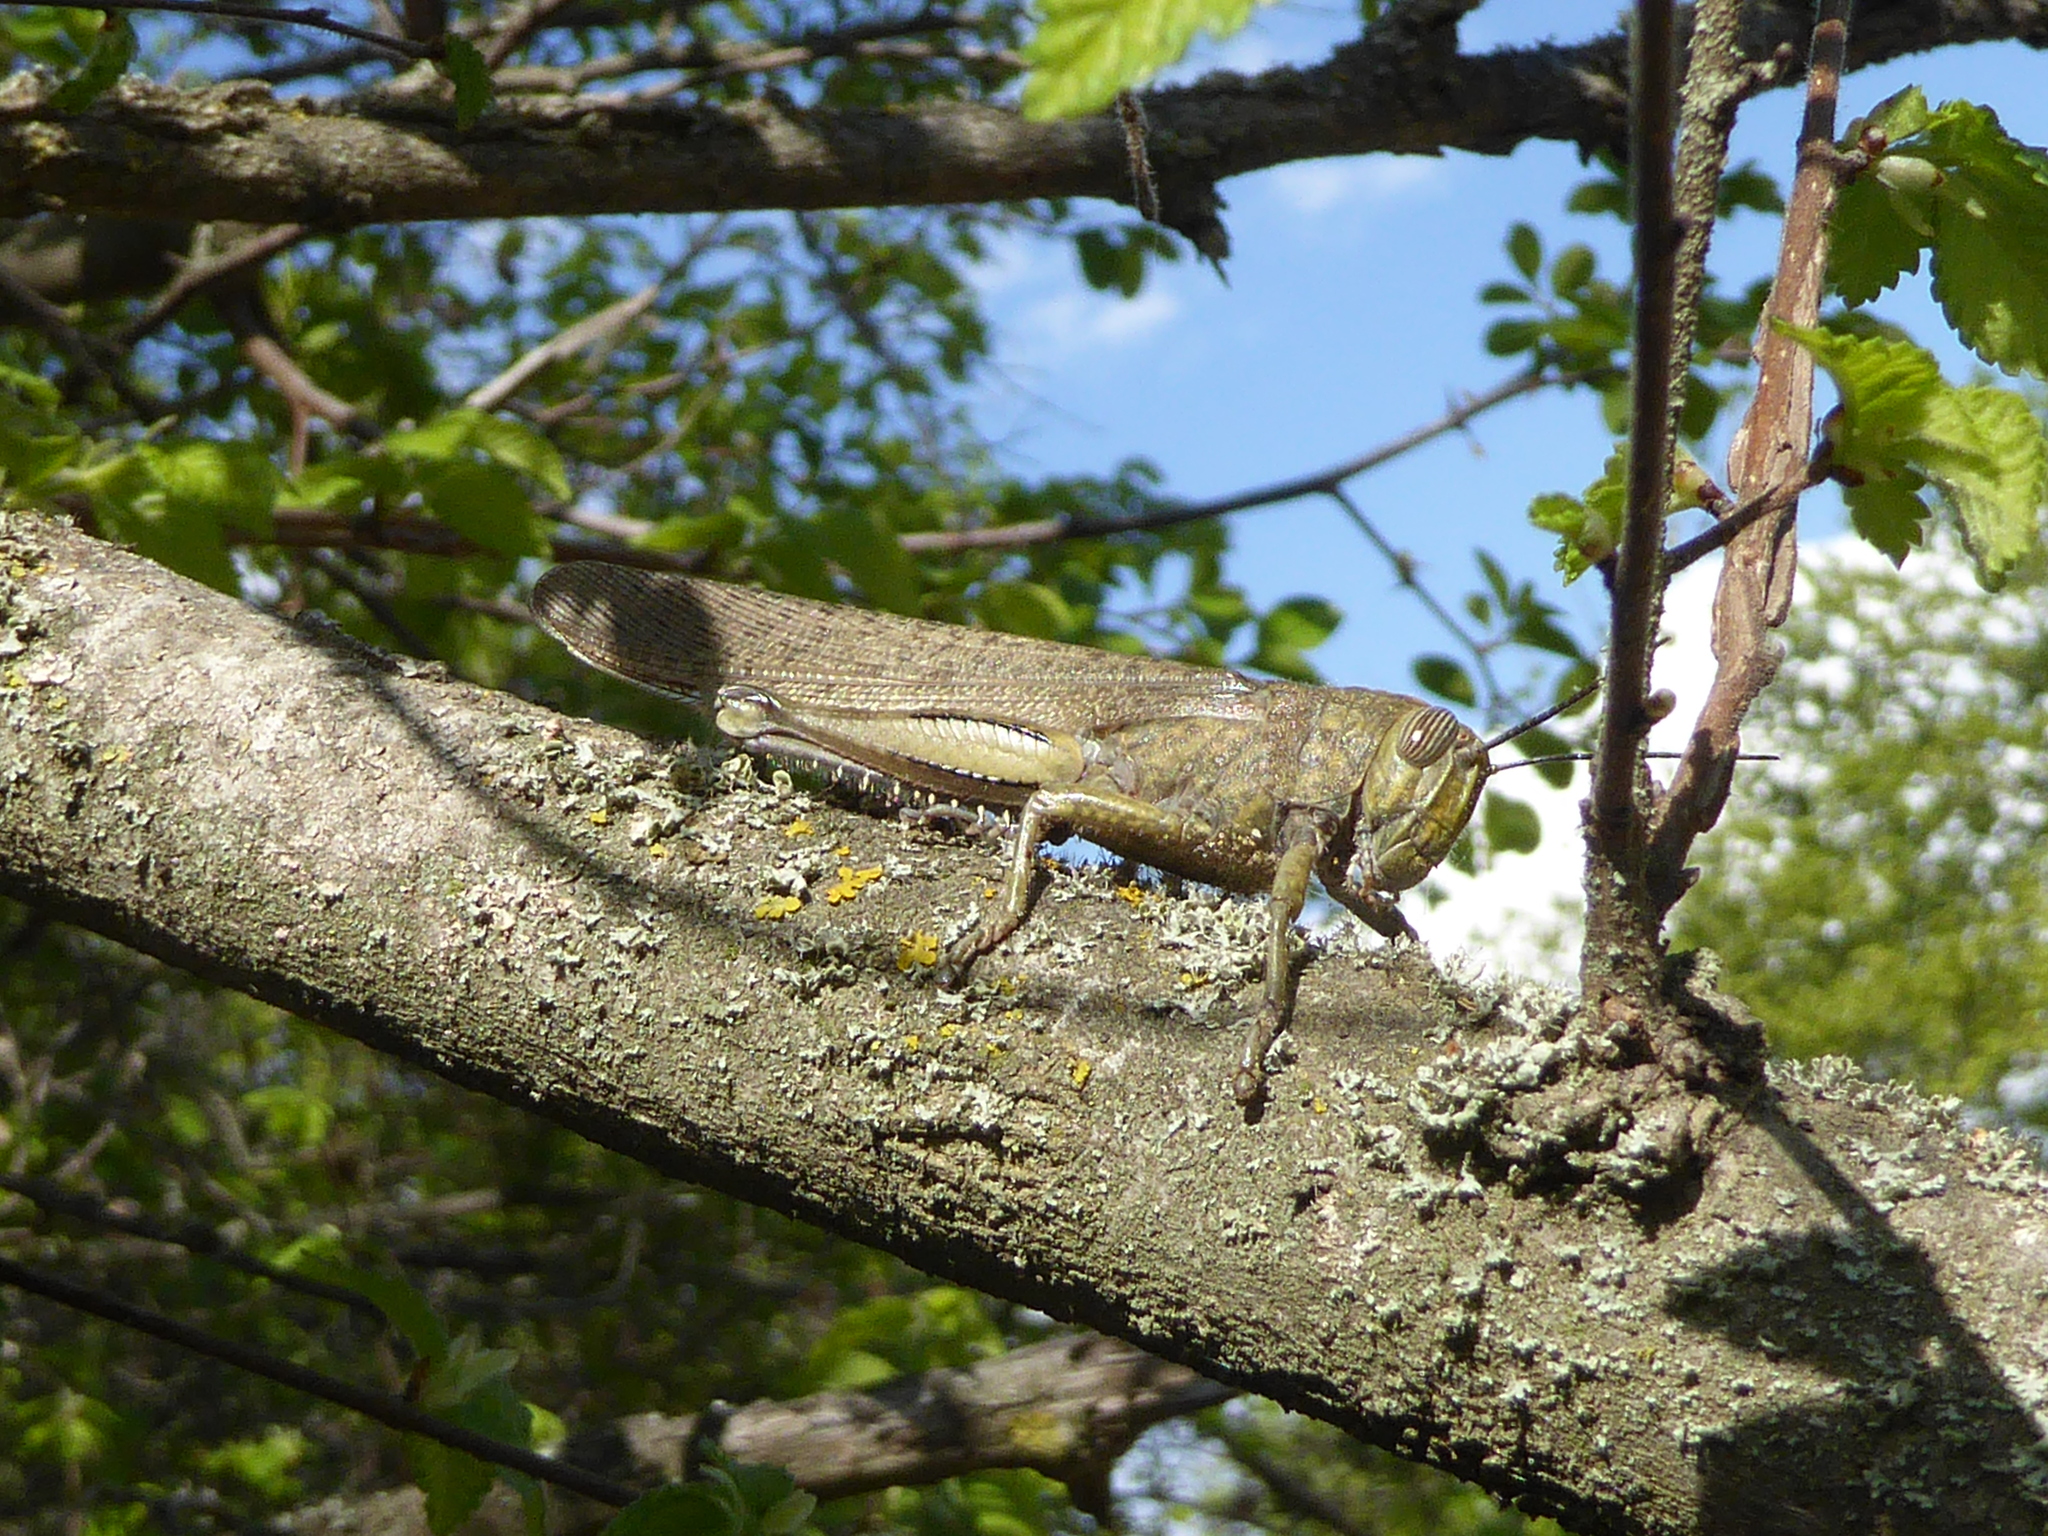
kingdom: Animalia
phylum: Arthropoda
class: Insecta
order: Orthoptera
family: Acrididae
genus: Anacridium
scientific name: Anacridium aegyptium
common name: Egyptian grasshopper
